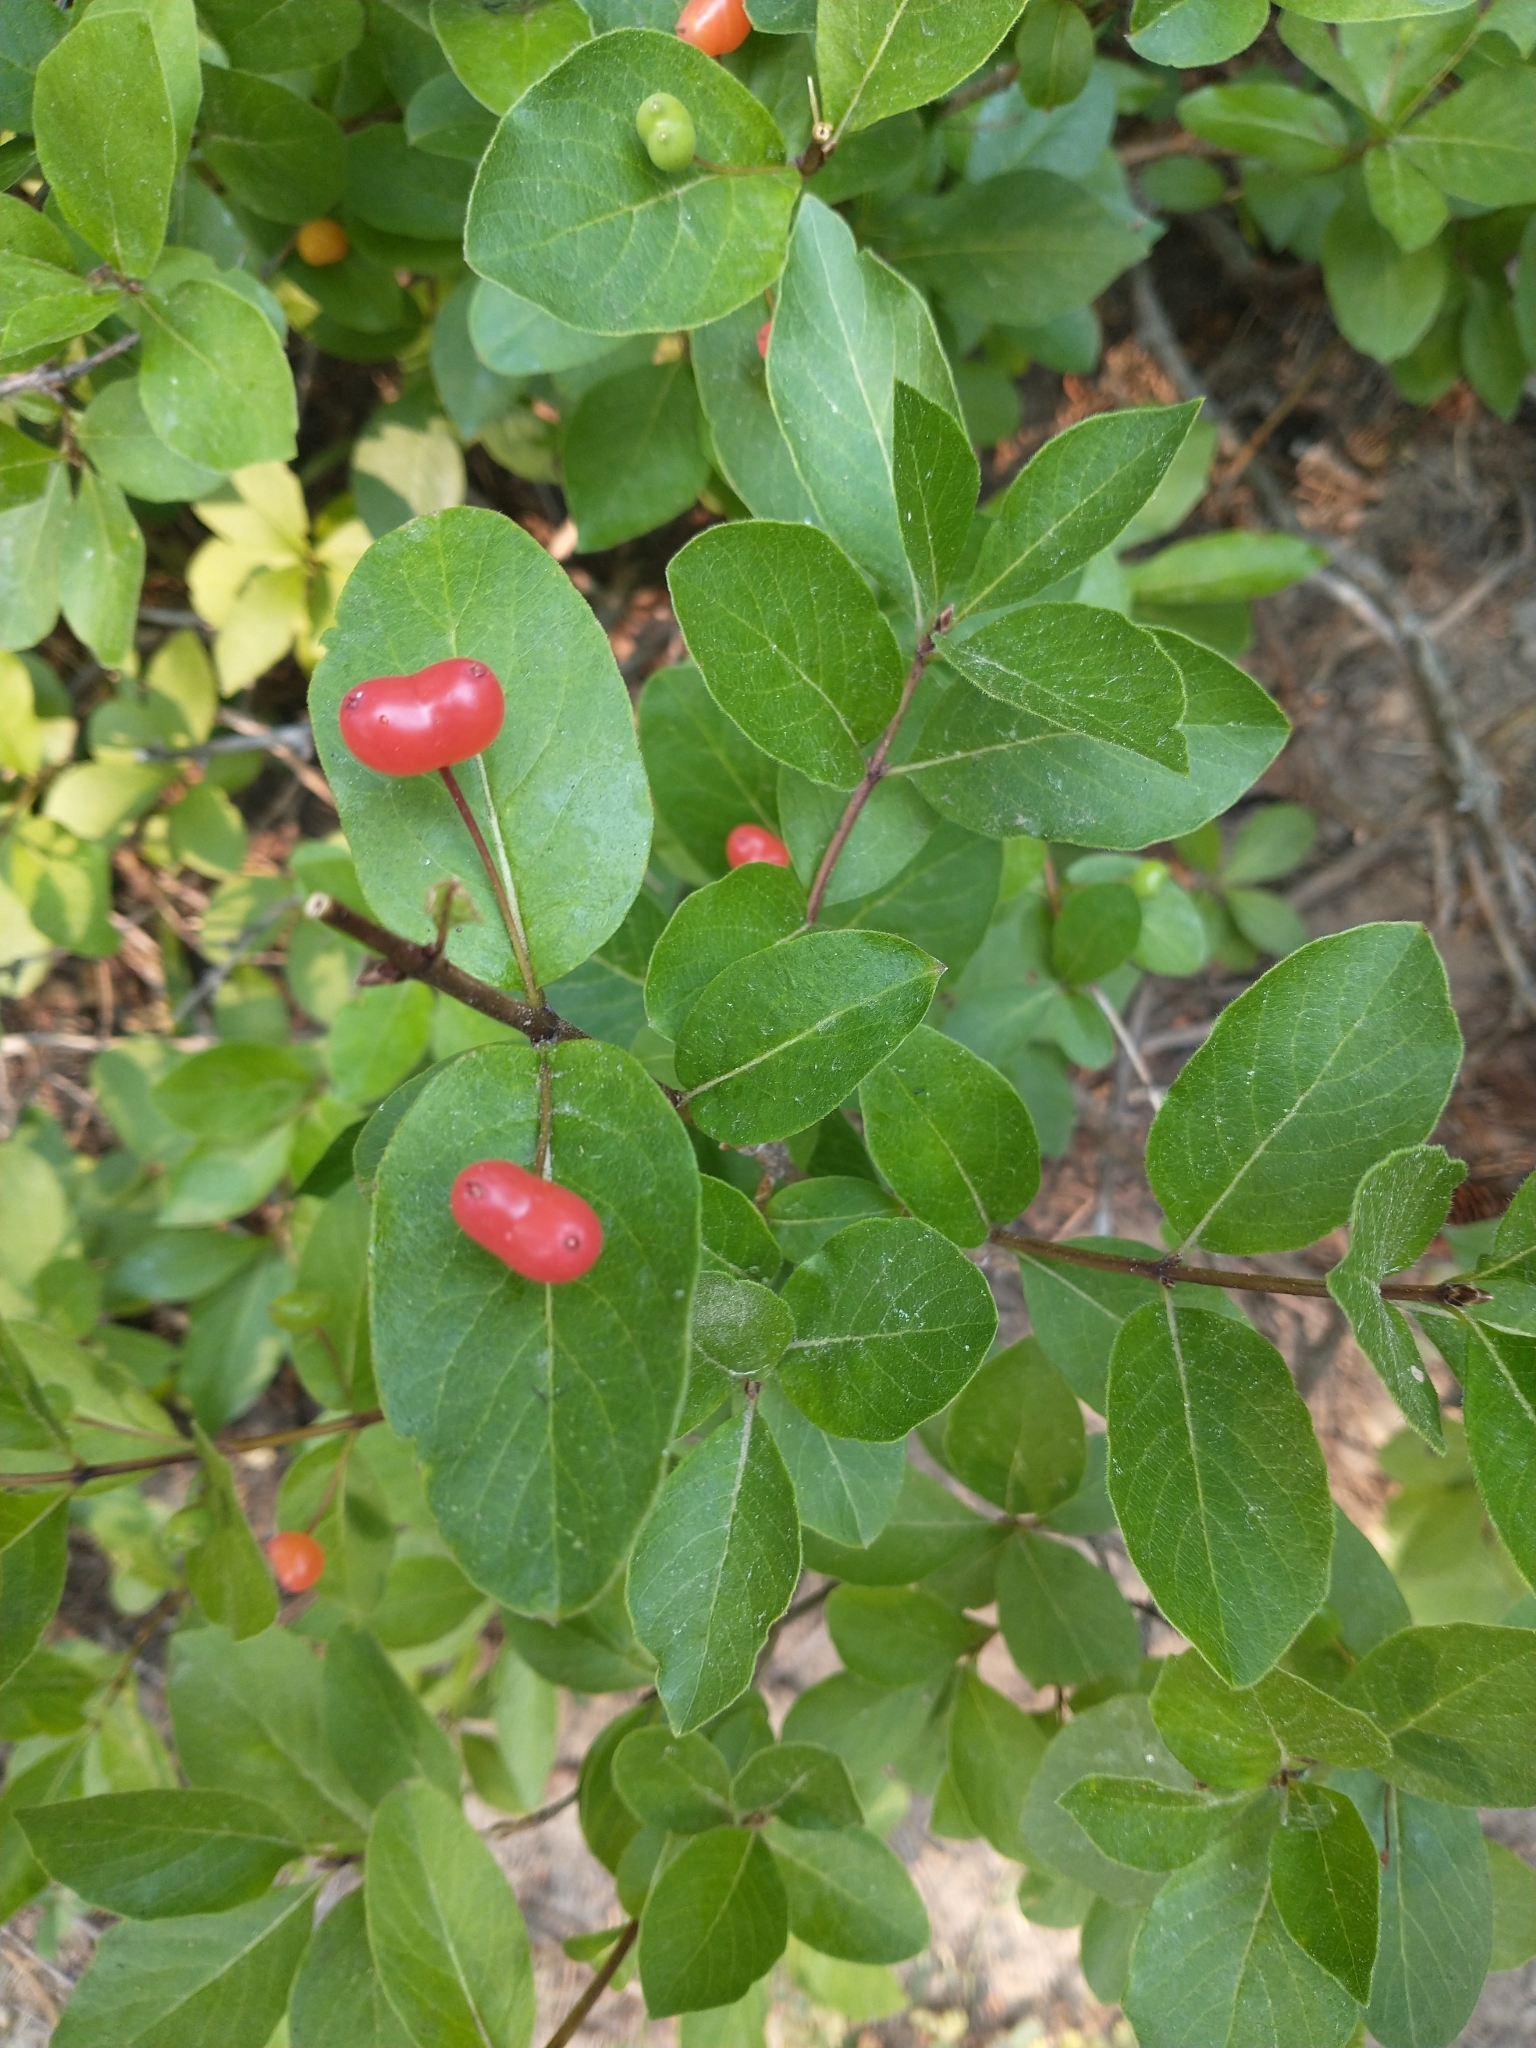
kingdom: Plantae
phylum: Tracheophyta
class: Magnoliopsida
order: Dipsacales
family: Caprifoliaceae
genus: Lonicera
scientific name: Lonicera conjugialis
